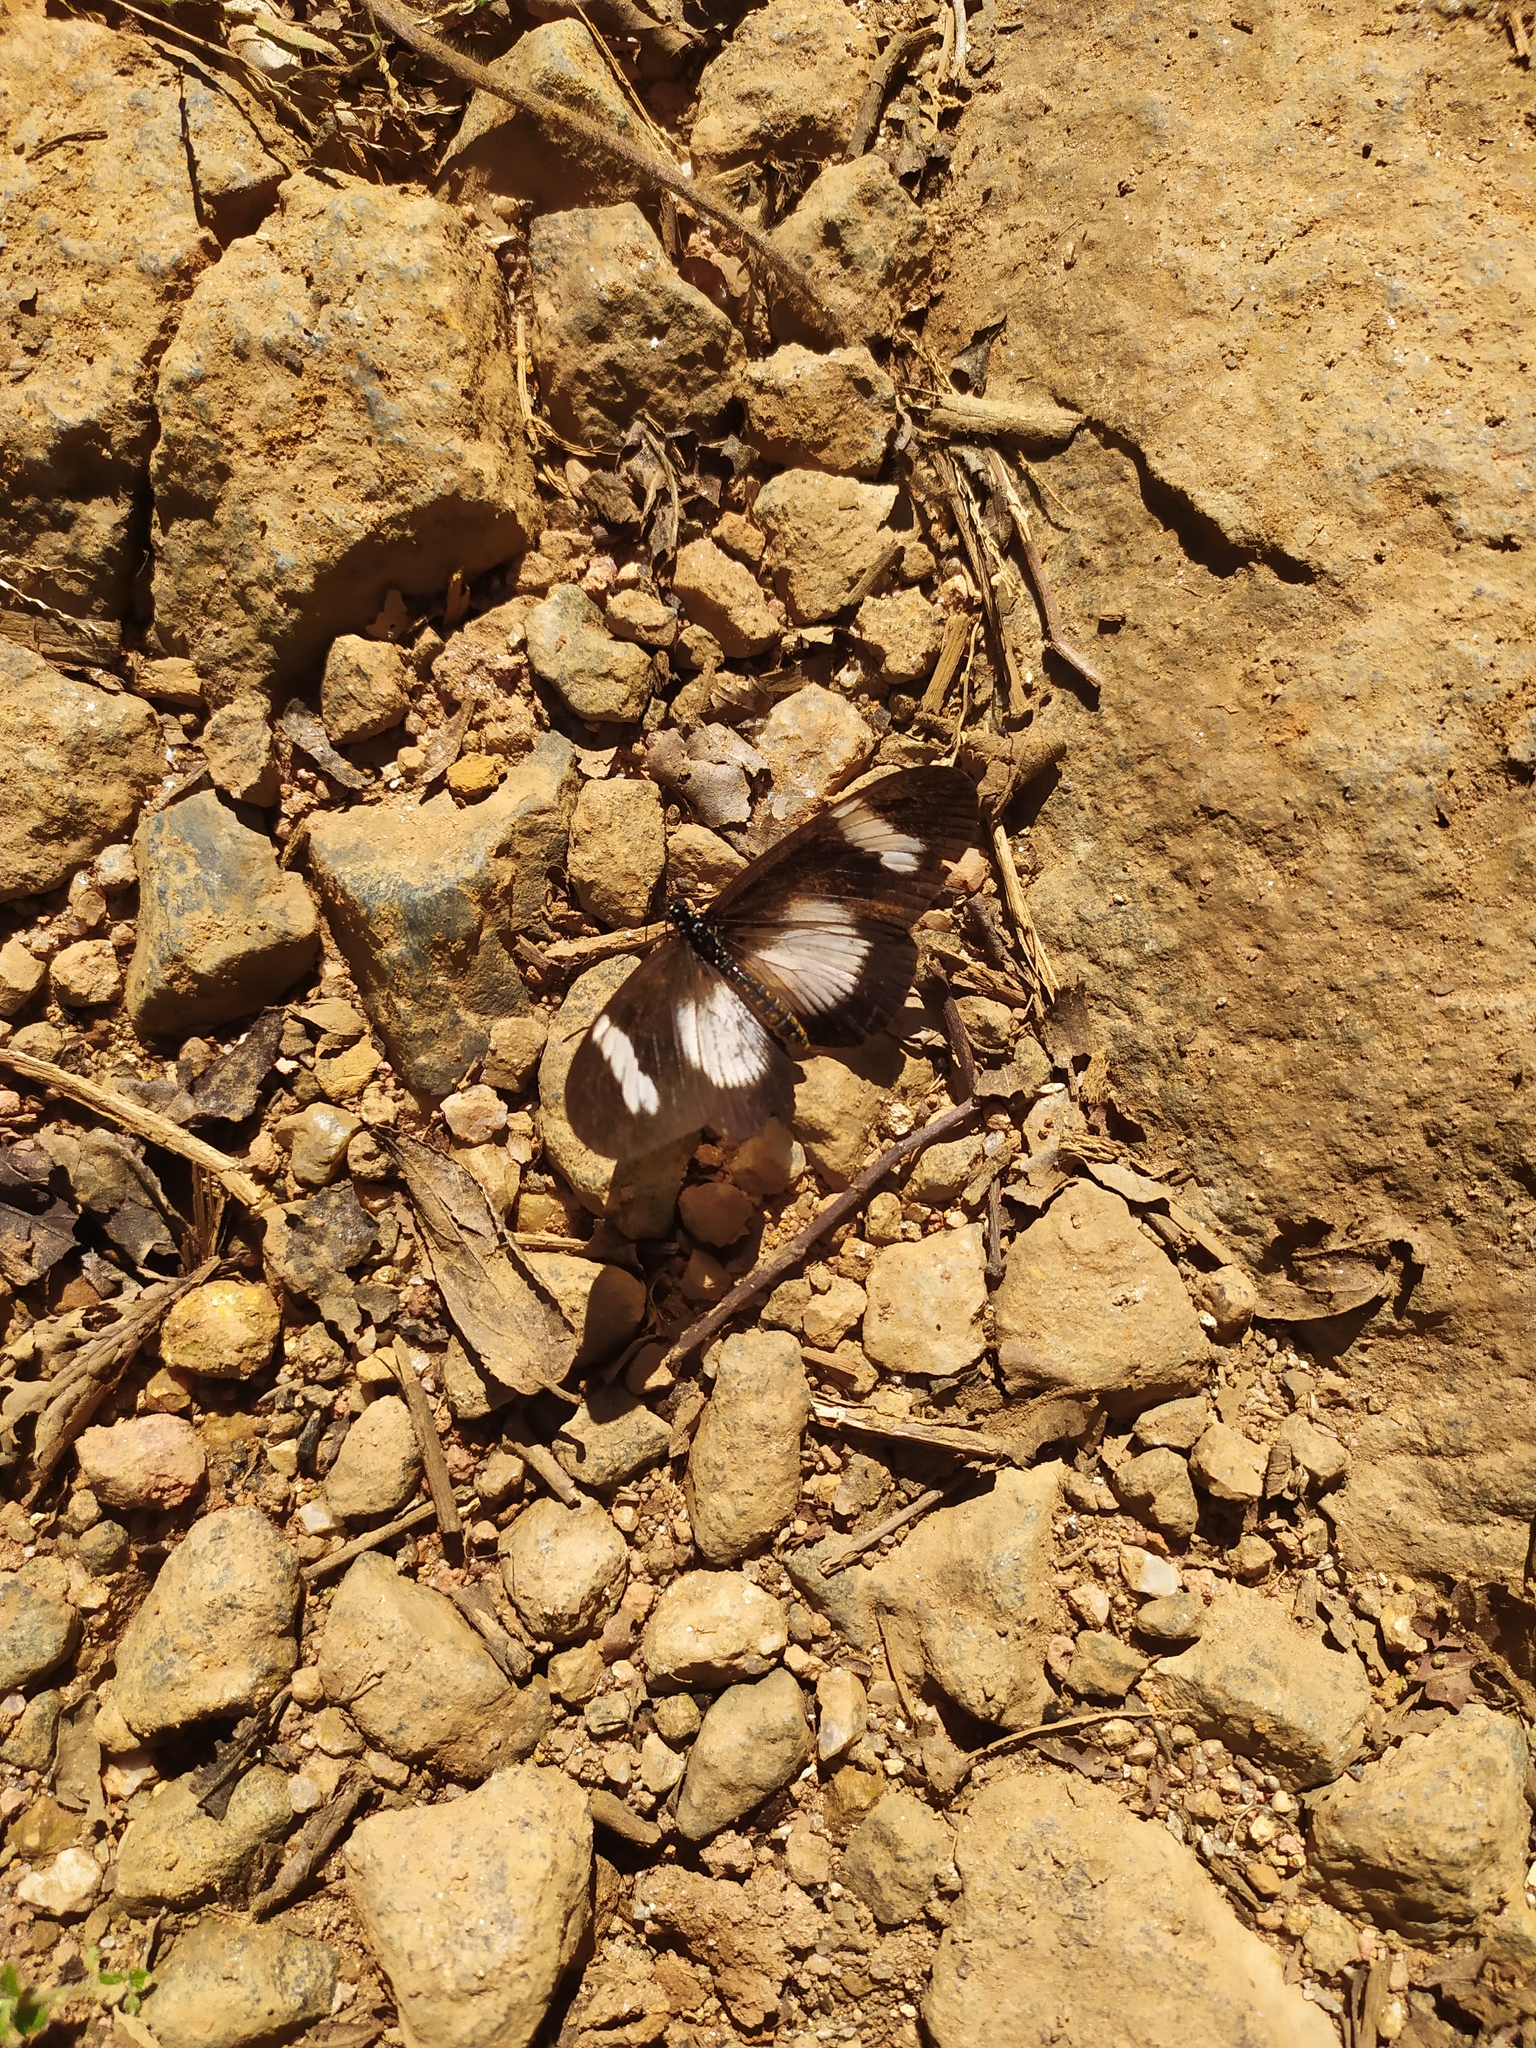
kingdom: Animalia
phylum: Arthropoda
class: Insecta
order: Lepidoptera
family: Nymphalidae
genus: Acraea
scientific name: Acraea esebria
